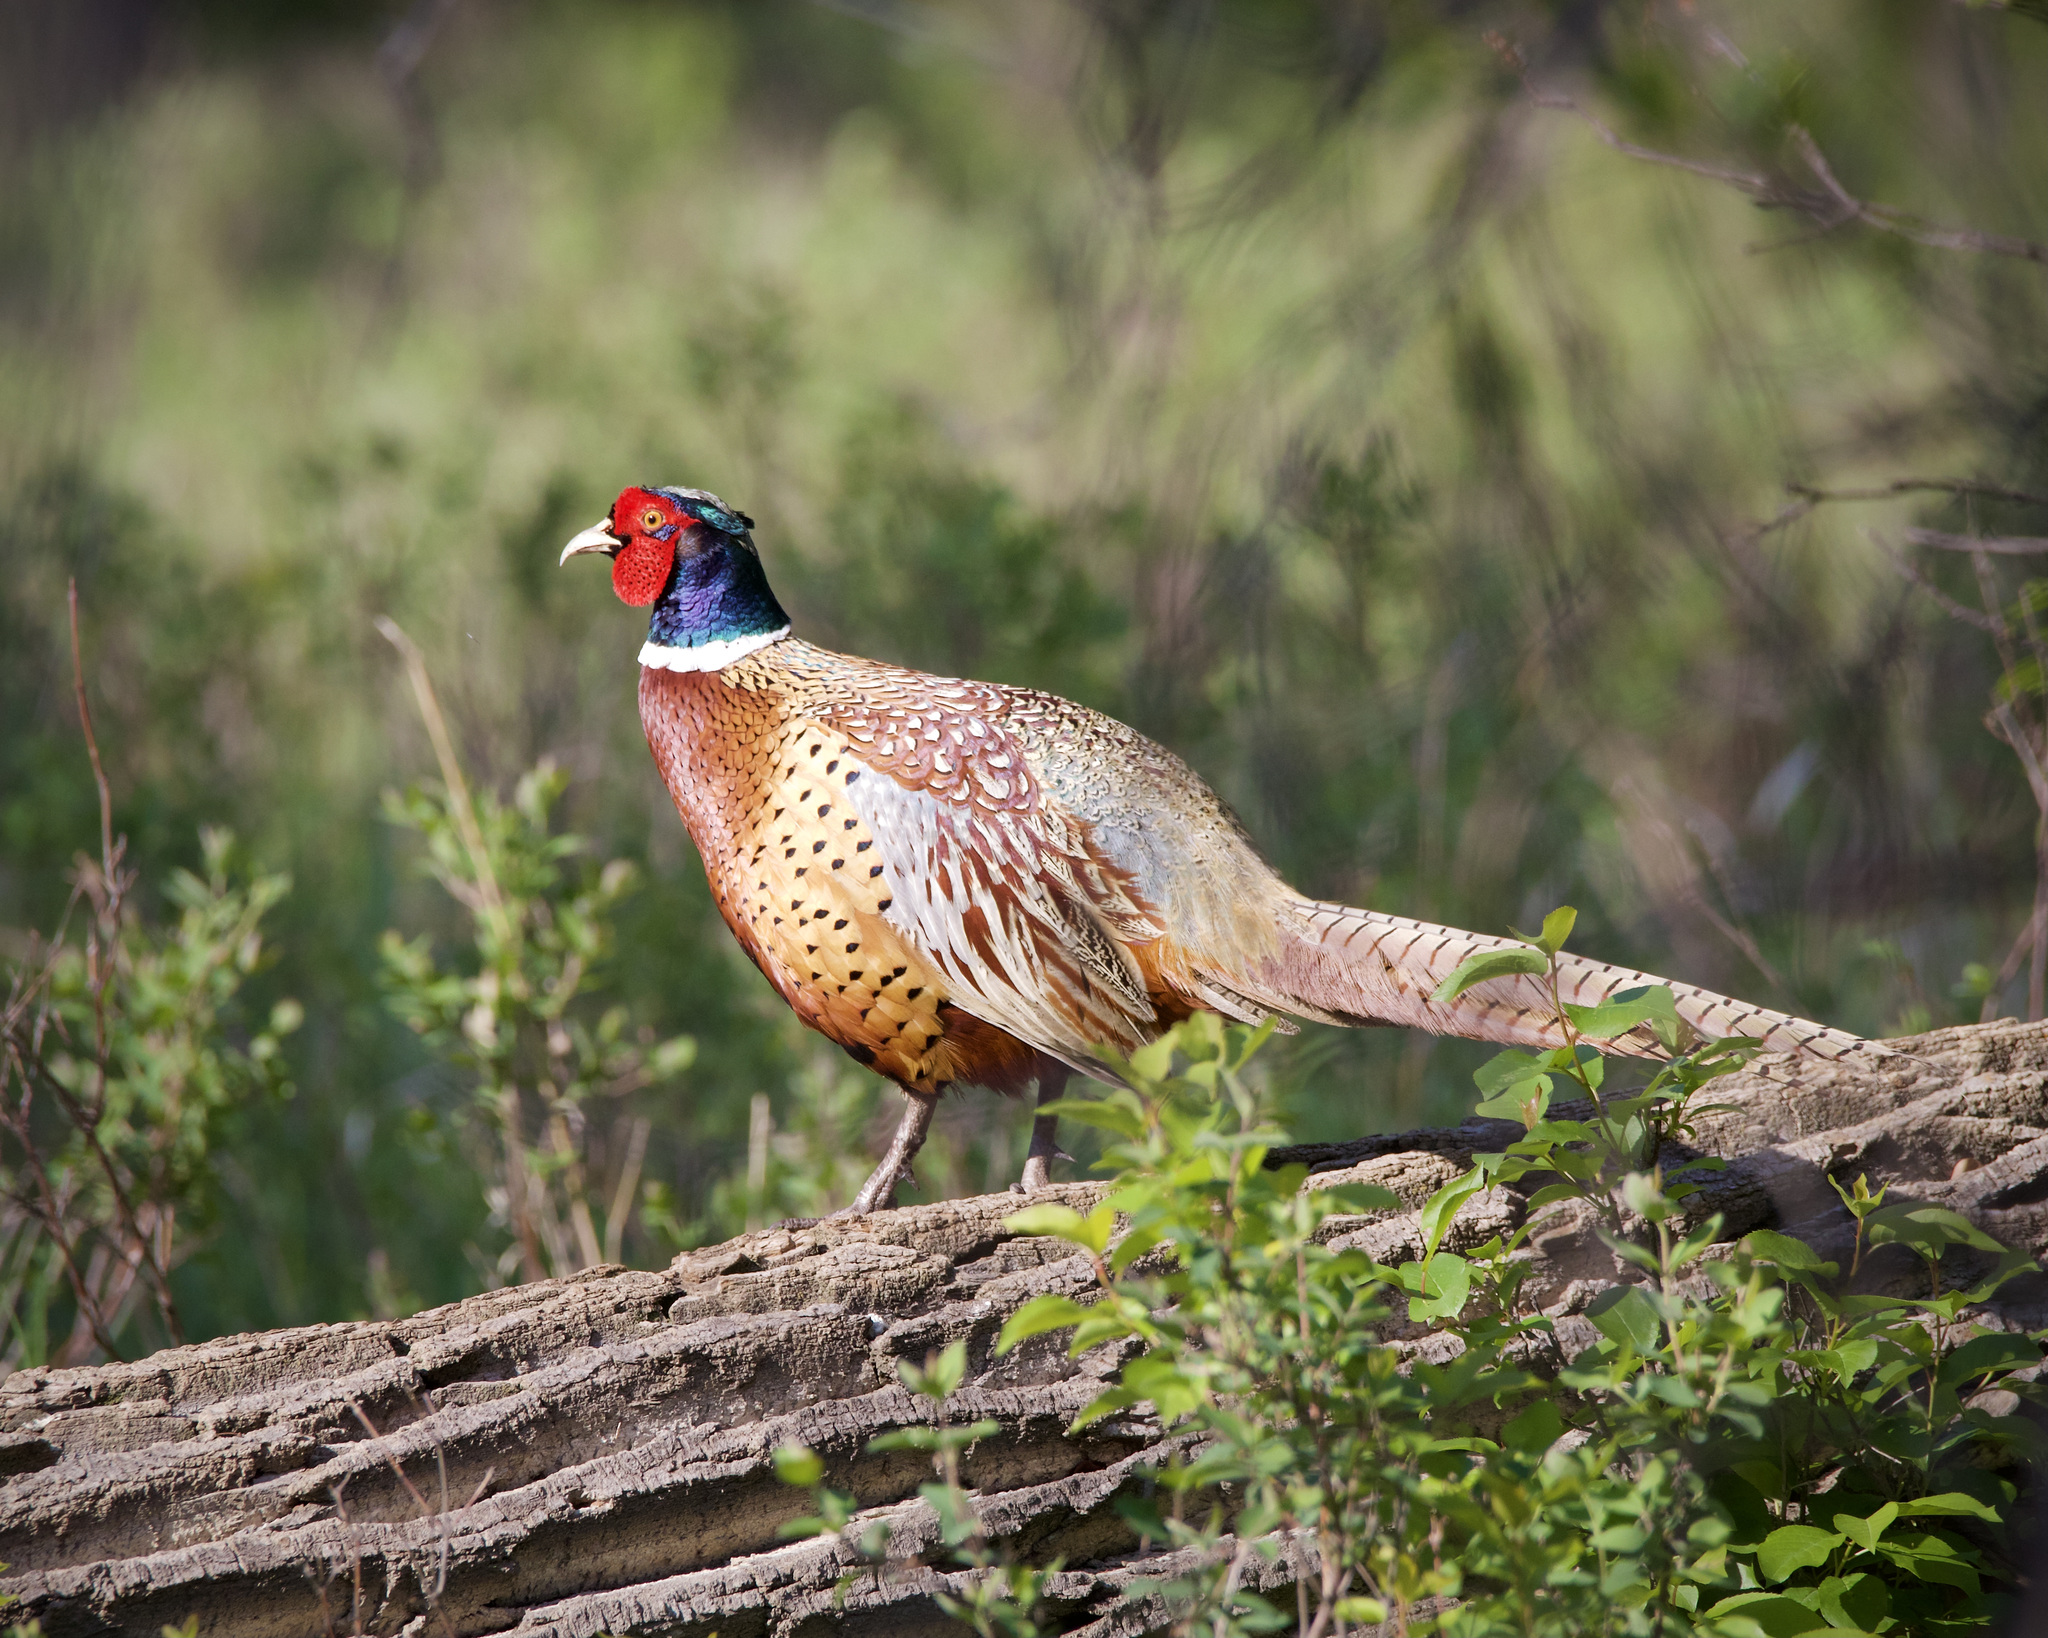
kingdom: Animalia
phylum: Chordata
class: Aves
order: Galliformes
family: Phasianidae
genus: Phasianus
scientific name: Phasianus colchicus
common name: Common pheasant
